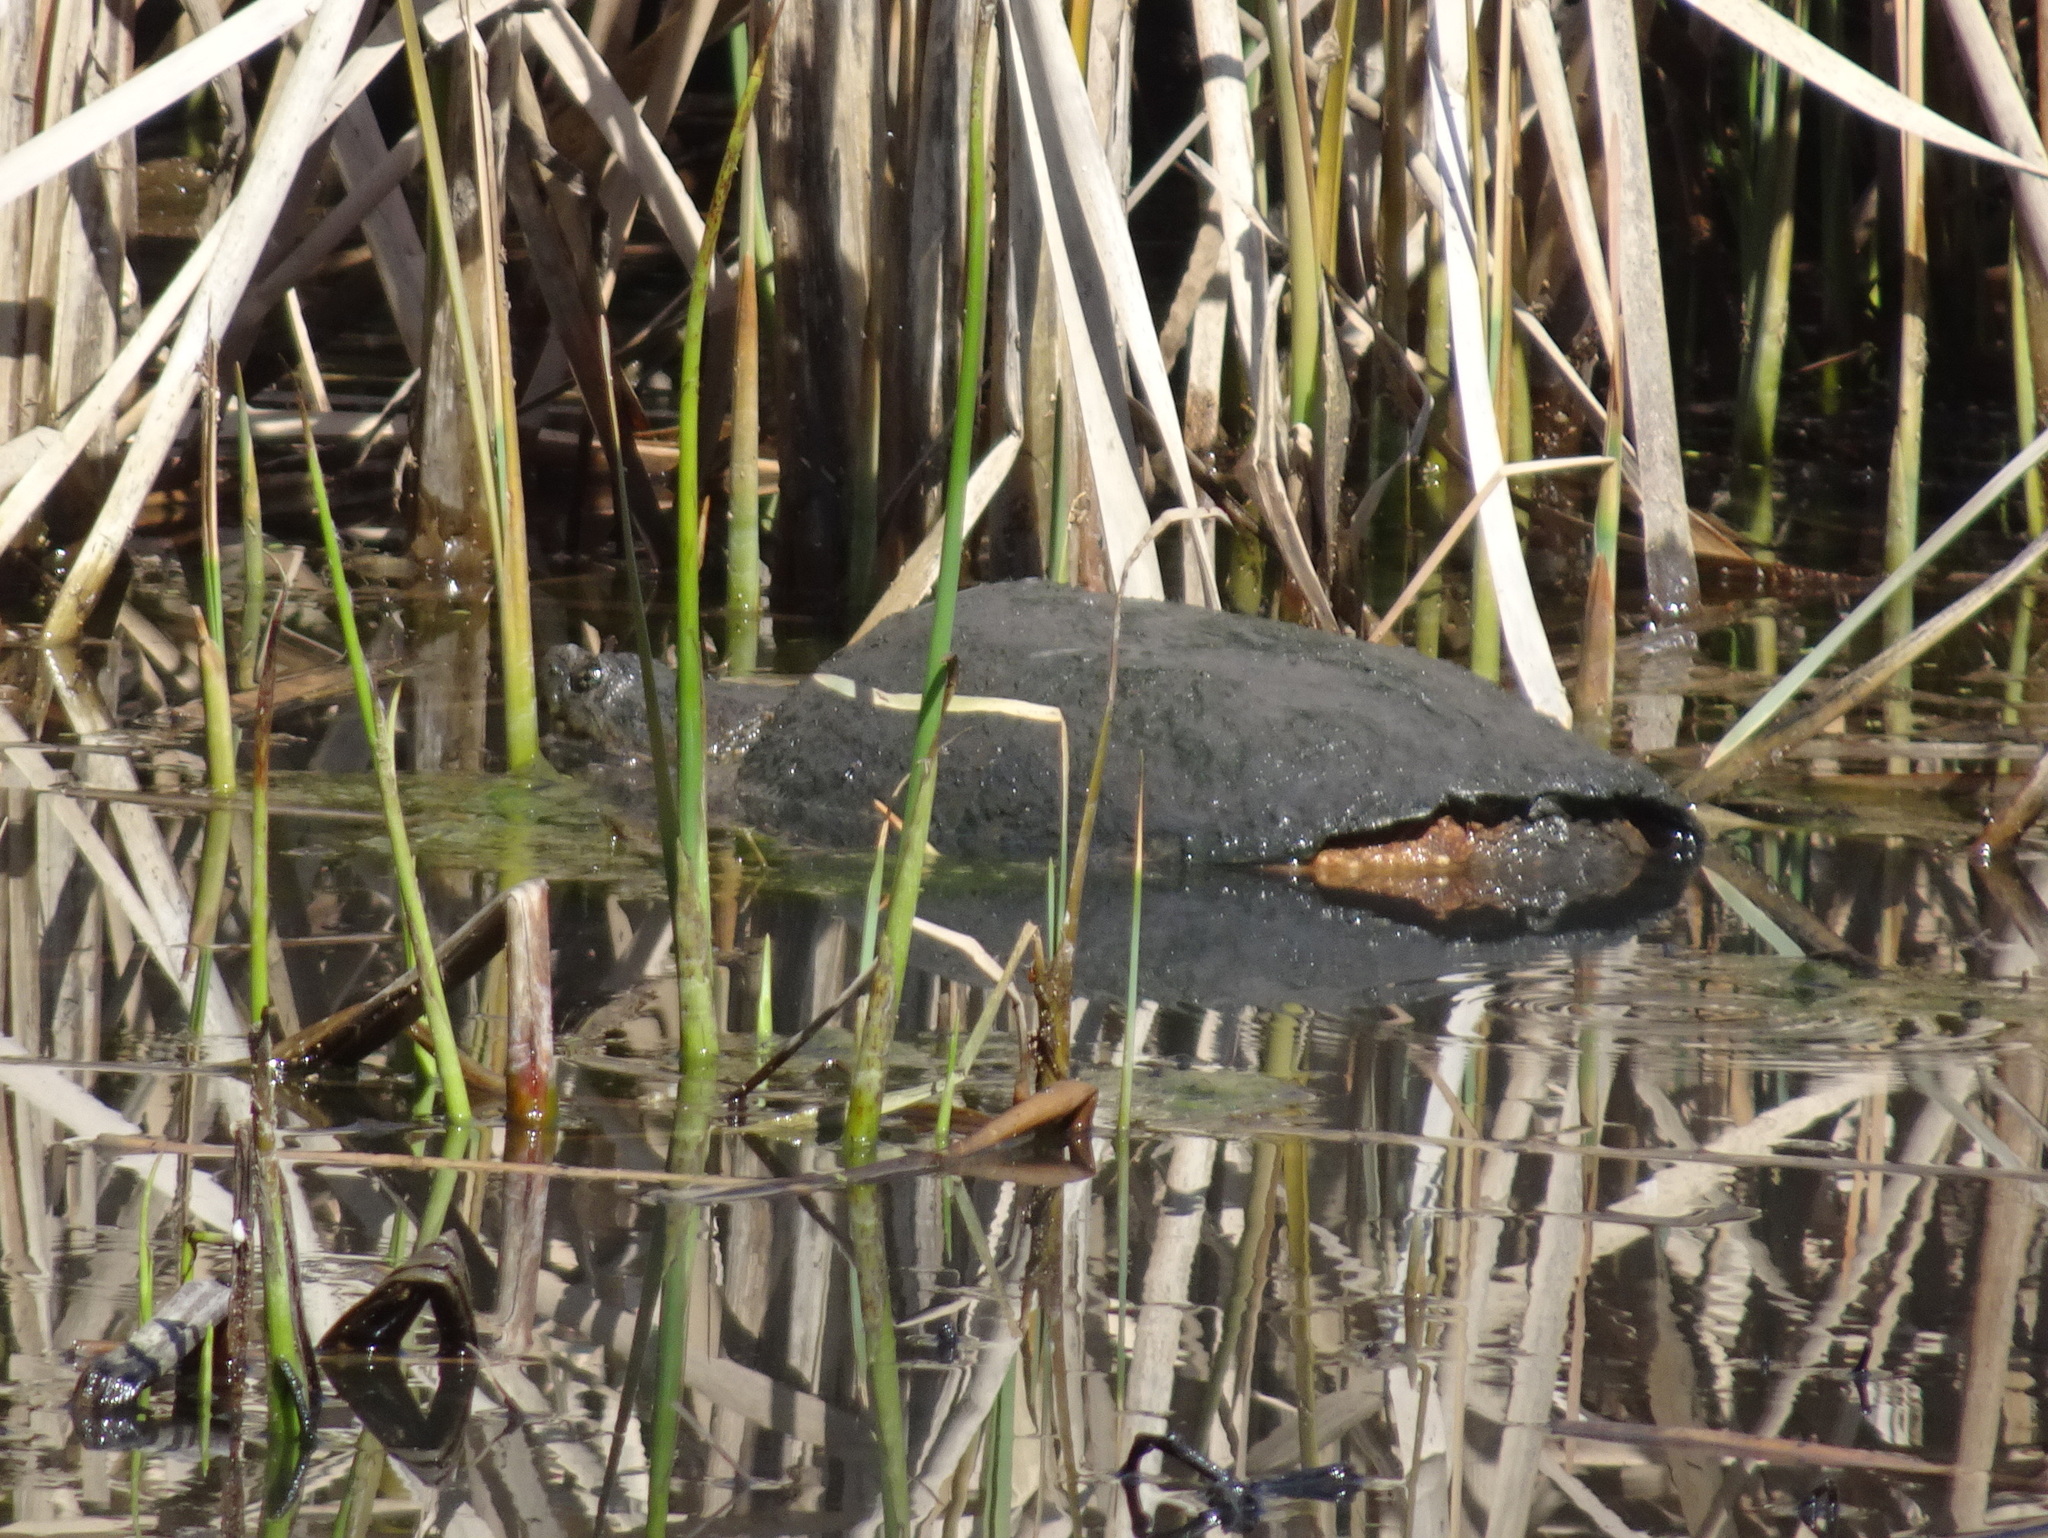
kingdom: Animalia
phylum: Chordata
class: Testudines
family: Chelydridae
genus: Chelydra
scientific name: Chelydra serpentina
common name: Common snapping turtle
